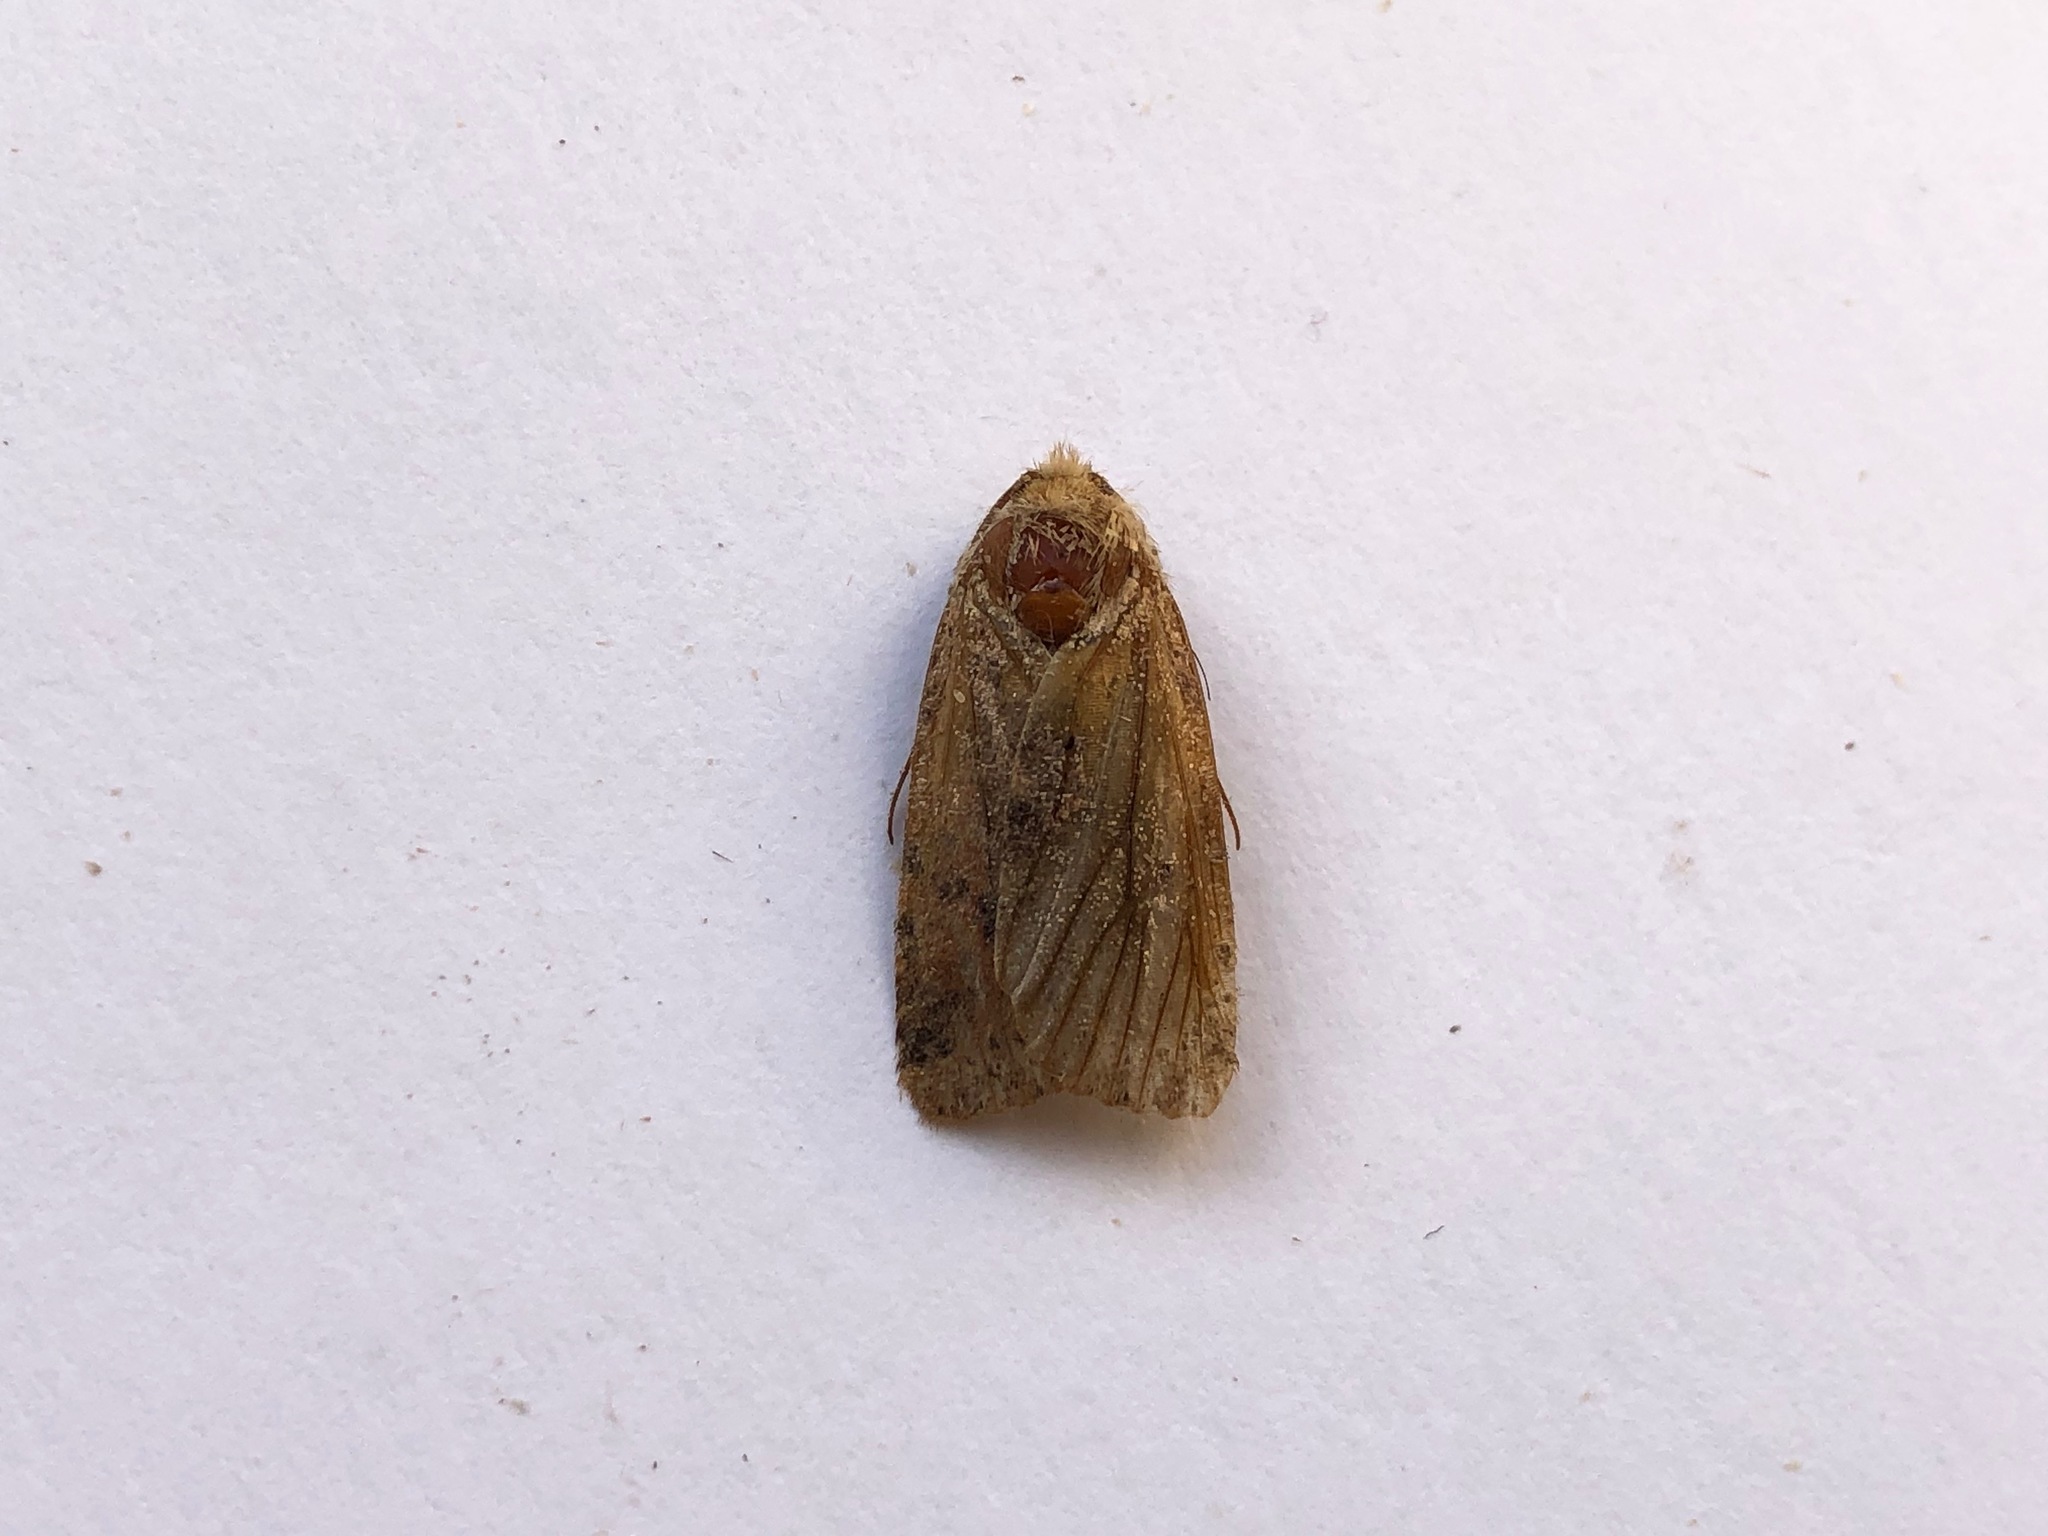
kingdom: Animalia
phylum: Arthropoda
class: Insecta
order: Lepidoptera
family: Noctuidae
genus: Conistra
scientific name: Conistra vaccinii
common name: Chestnut
